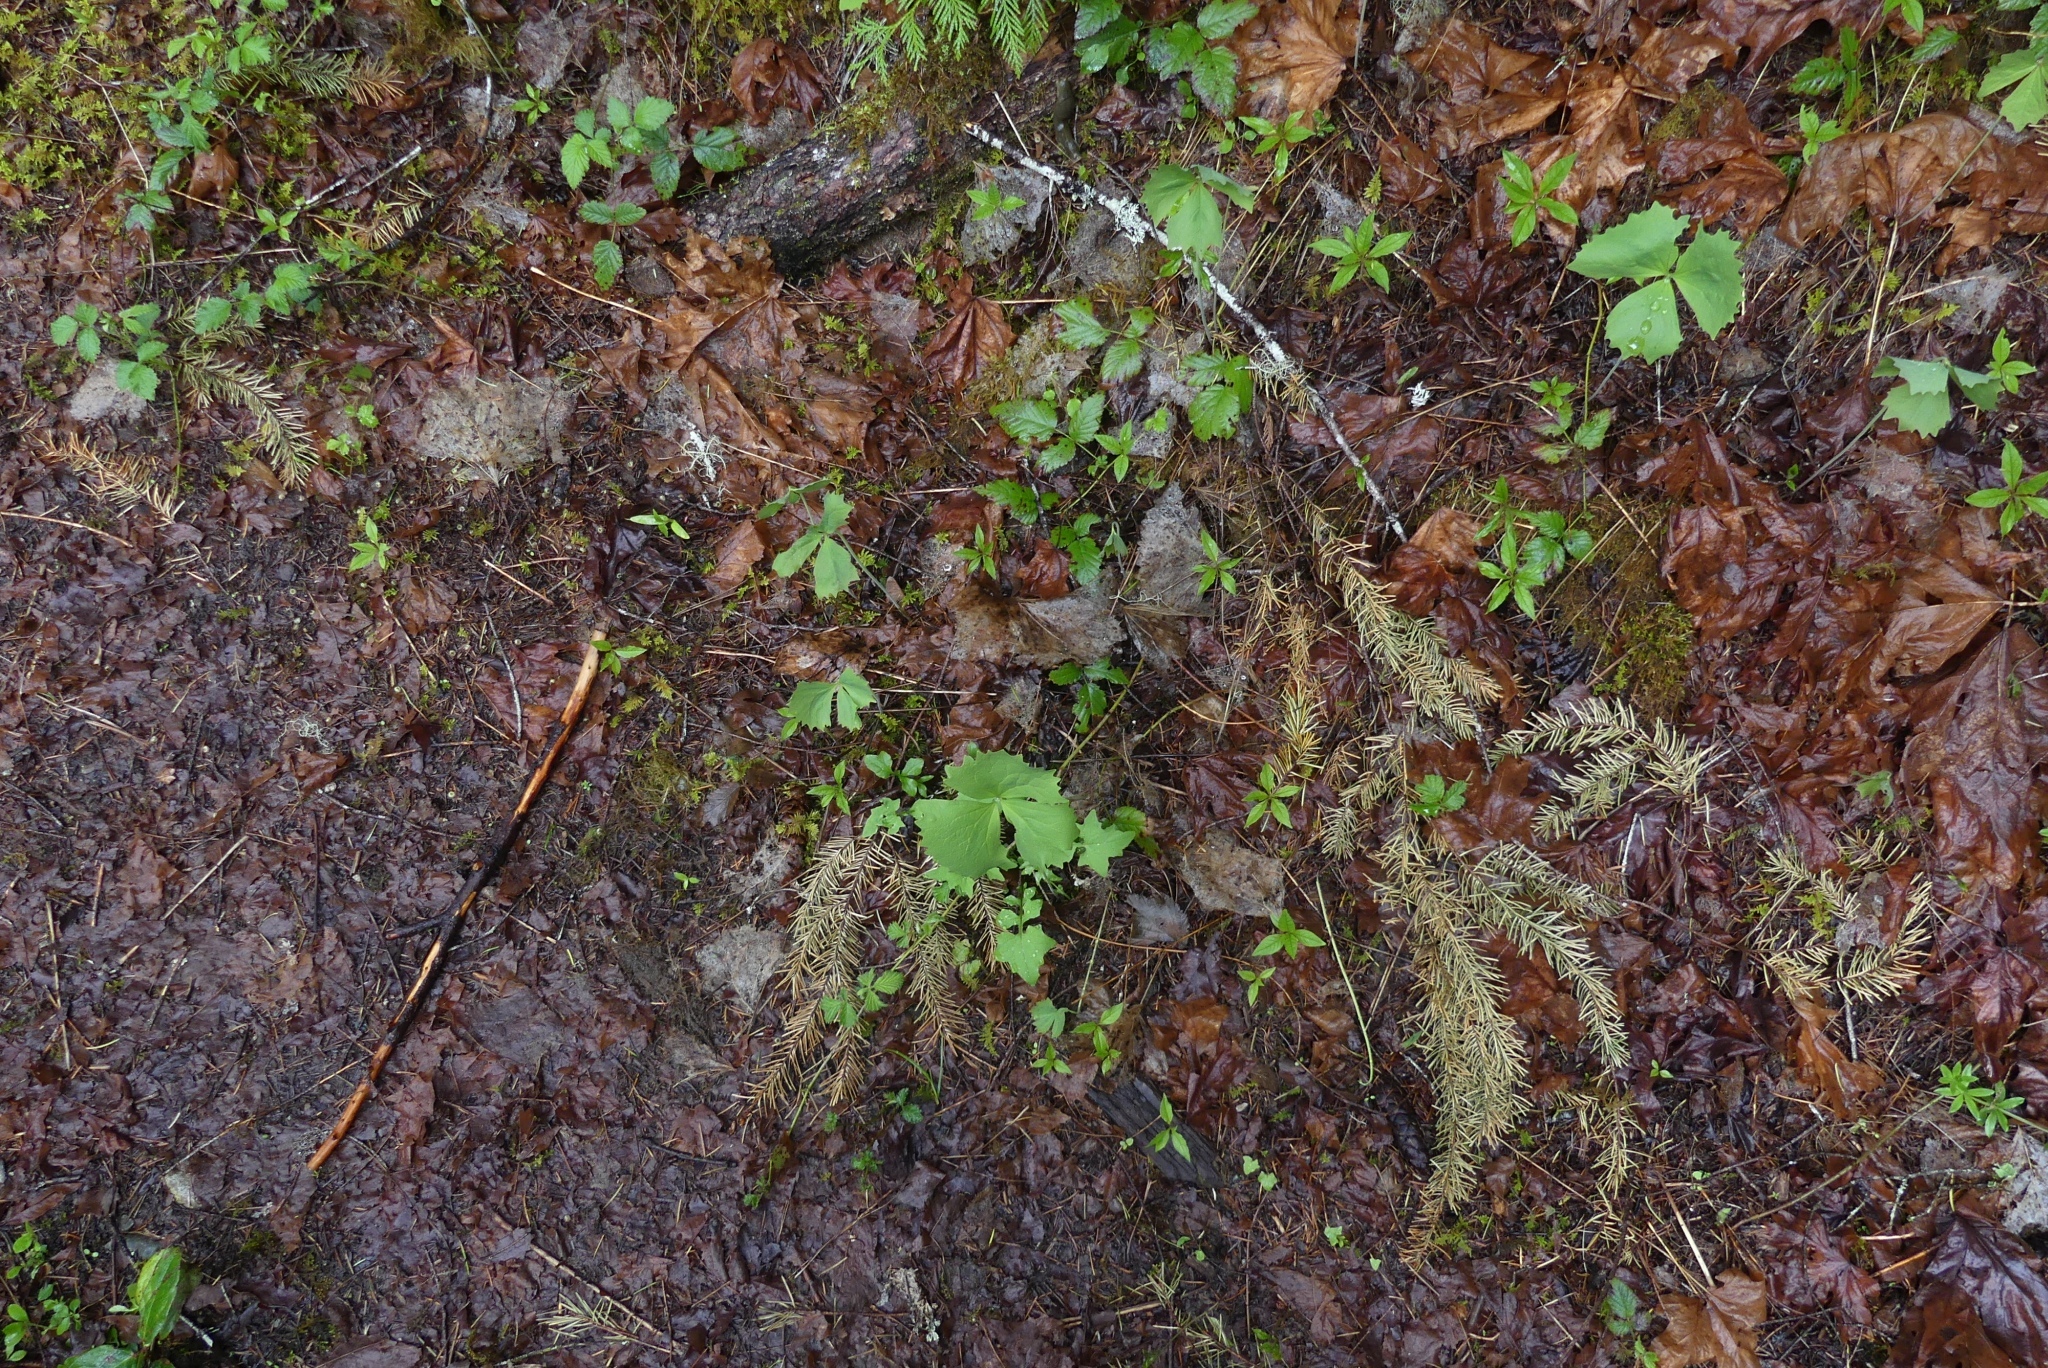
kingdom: Plantae
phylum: Tracheophyta
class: Magnoliopsida
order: Ranunculales
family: Berberidaceae
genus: Achlys
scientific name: Achlys triphylla
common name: Vanilla-leaf
